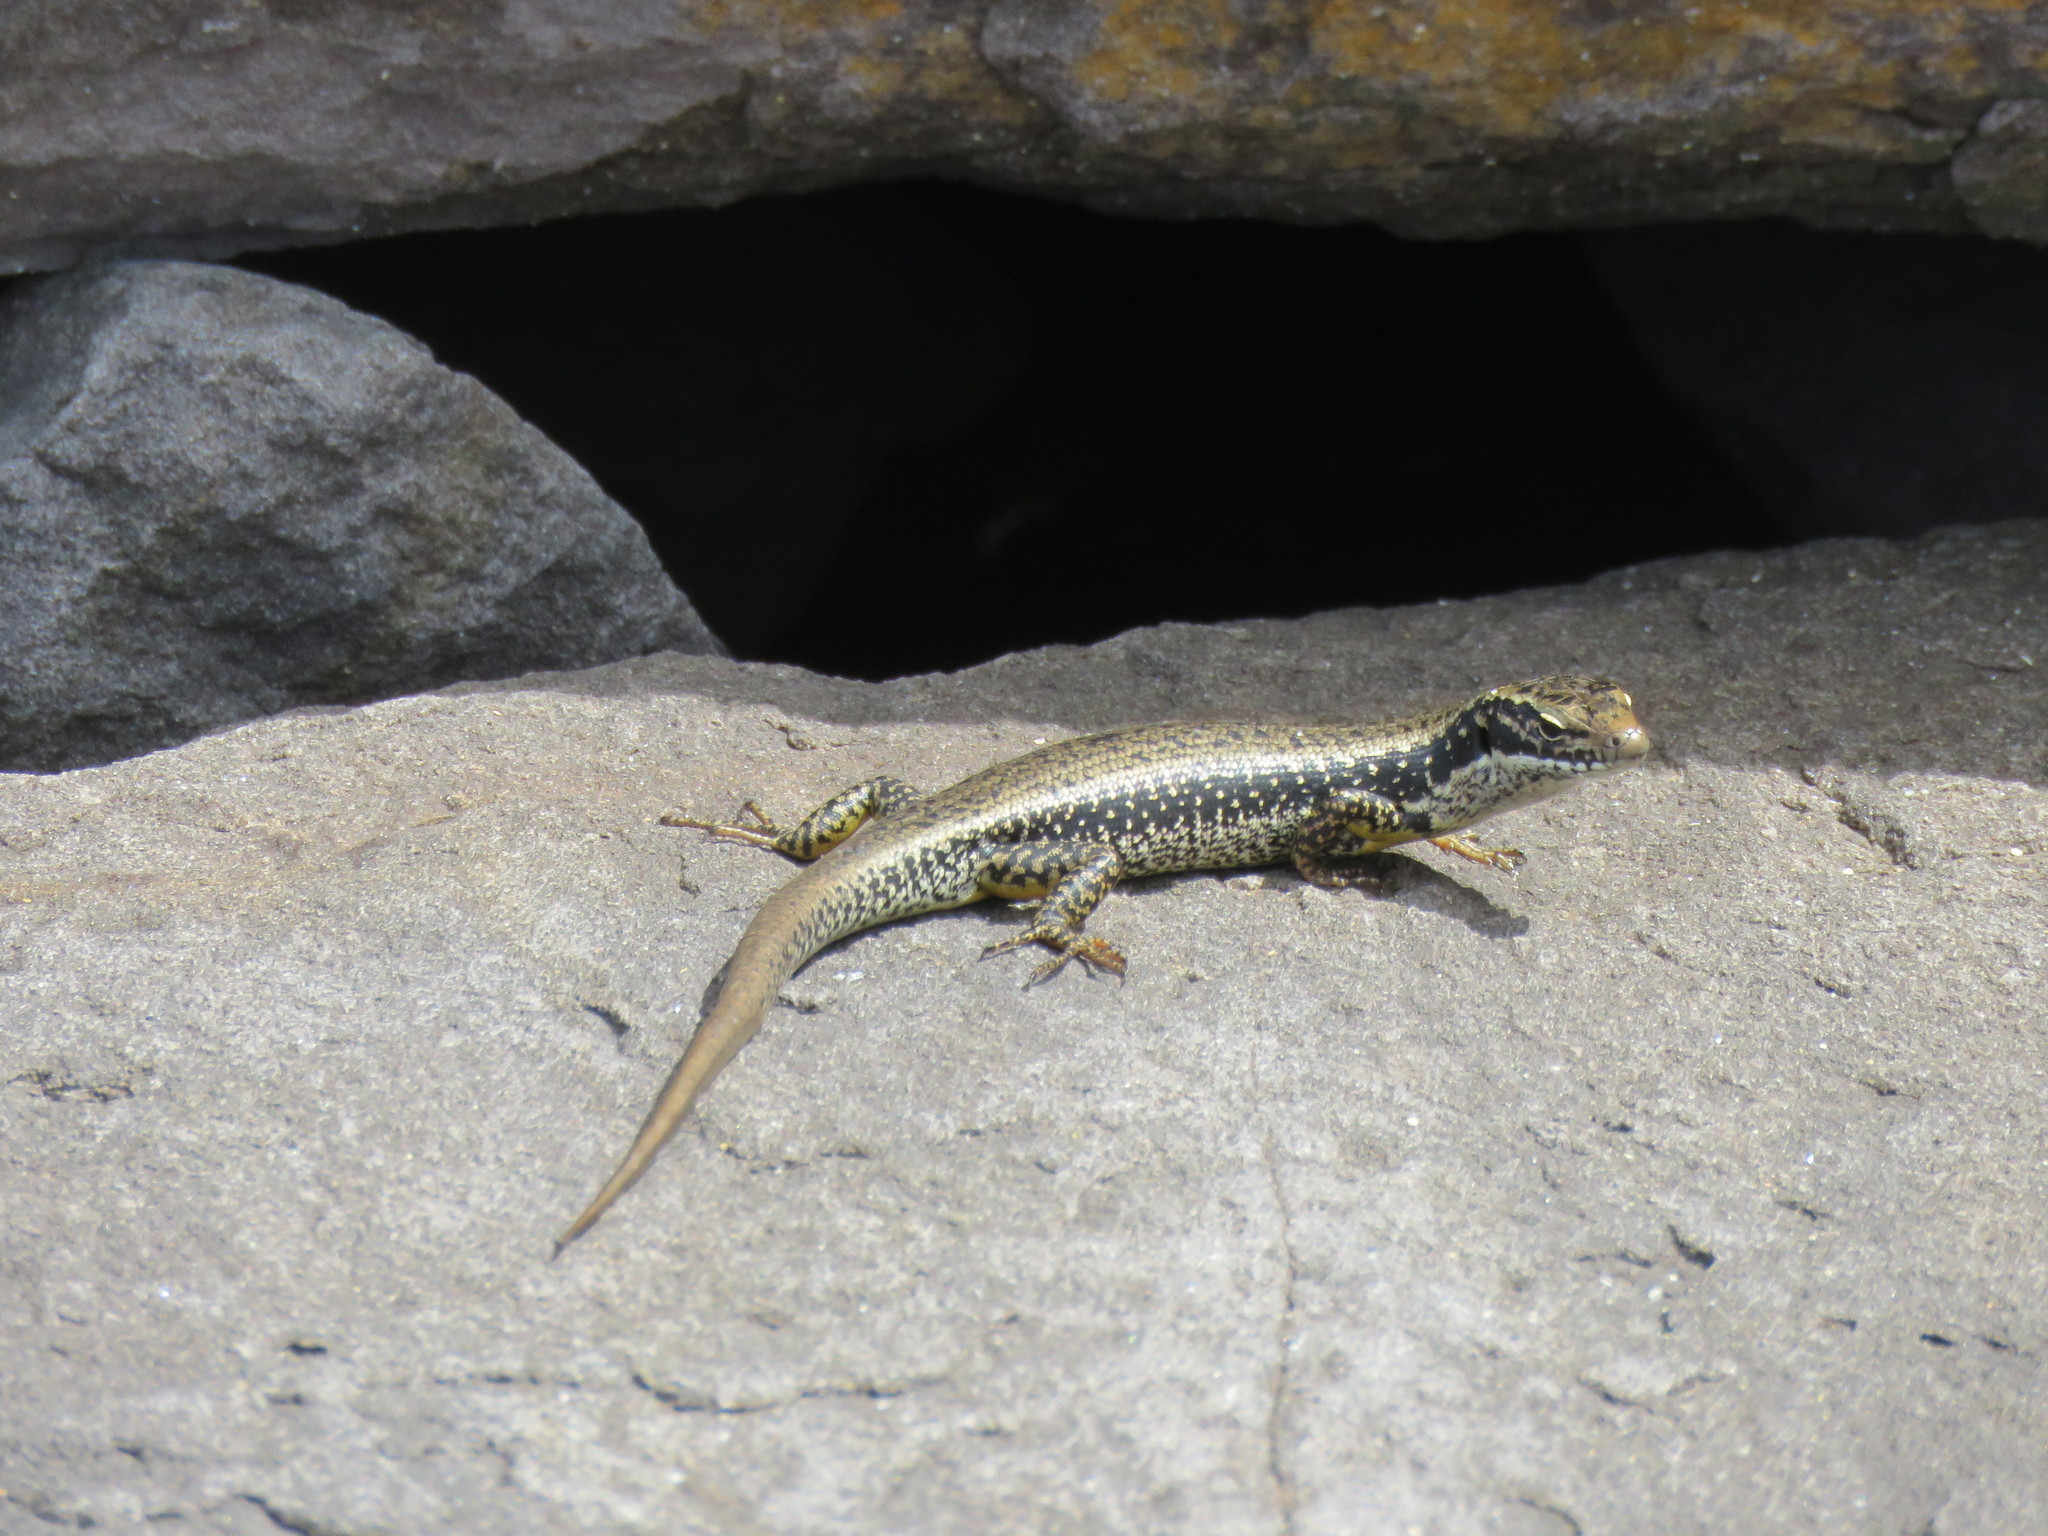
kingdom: Animalia
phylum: Chordata
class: Squamata
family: Scincidae
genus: Eulamprus
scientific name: Eulamprus heatwolei
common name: Warm-temperate water-skink
